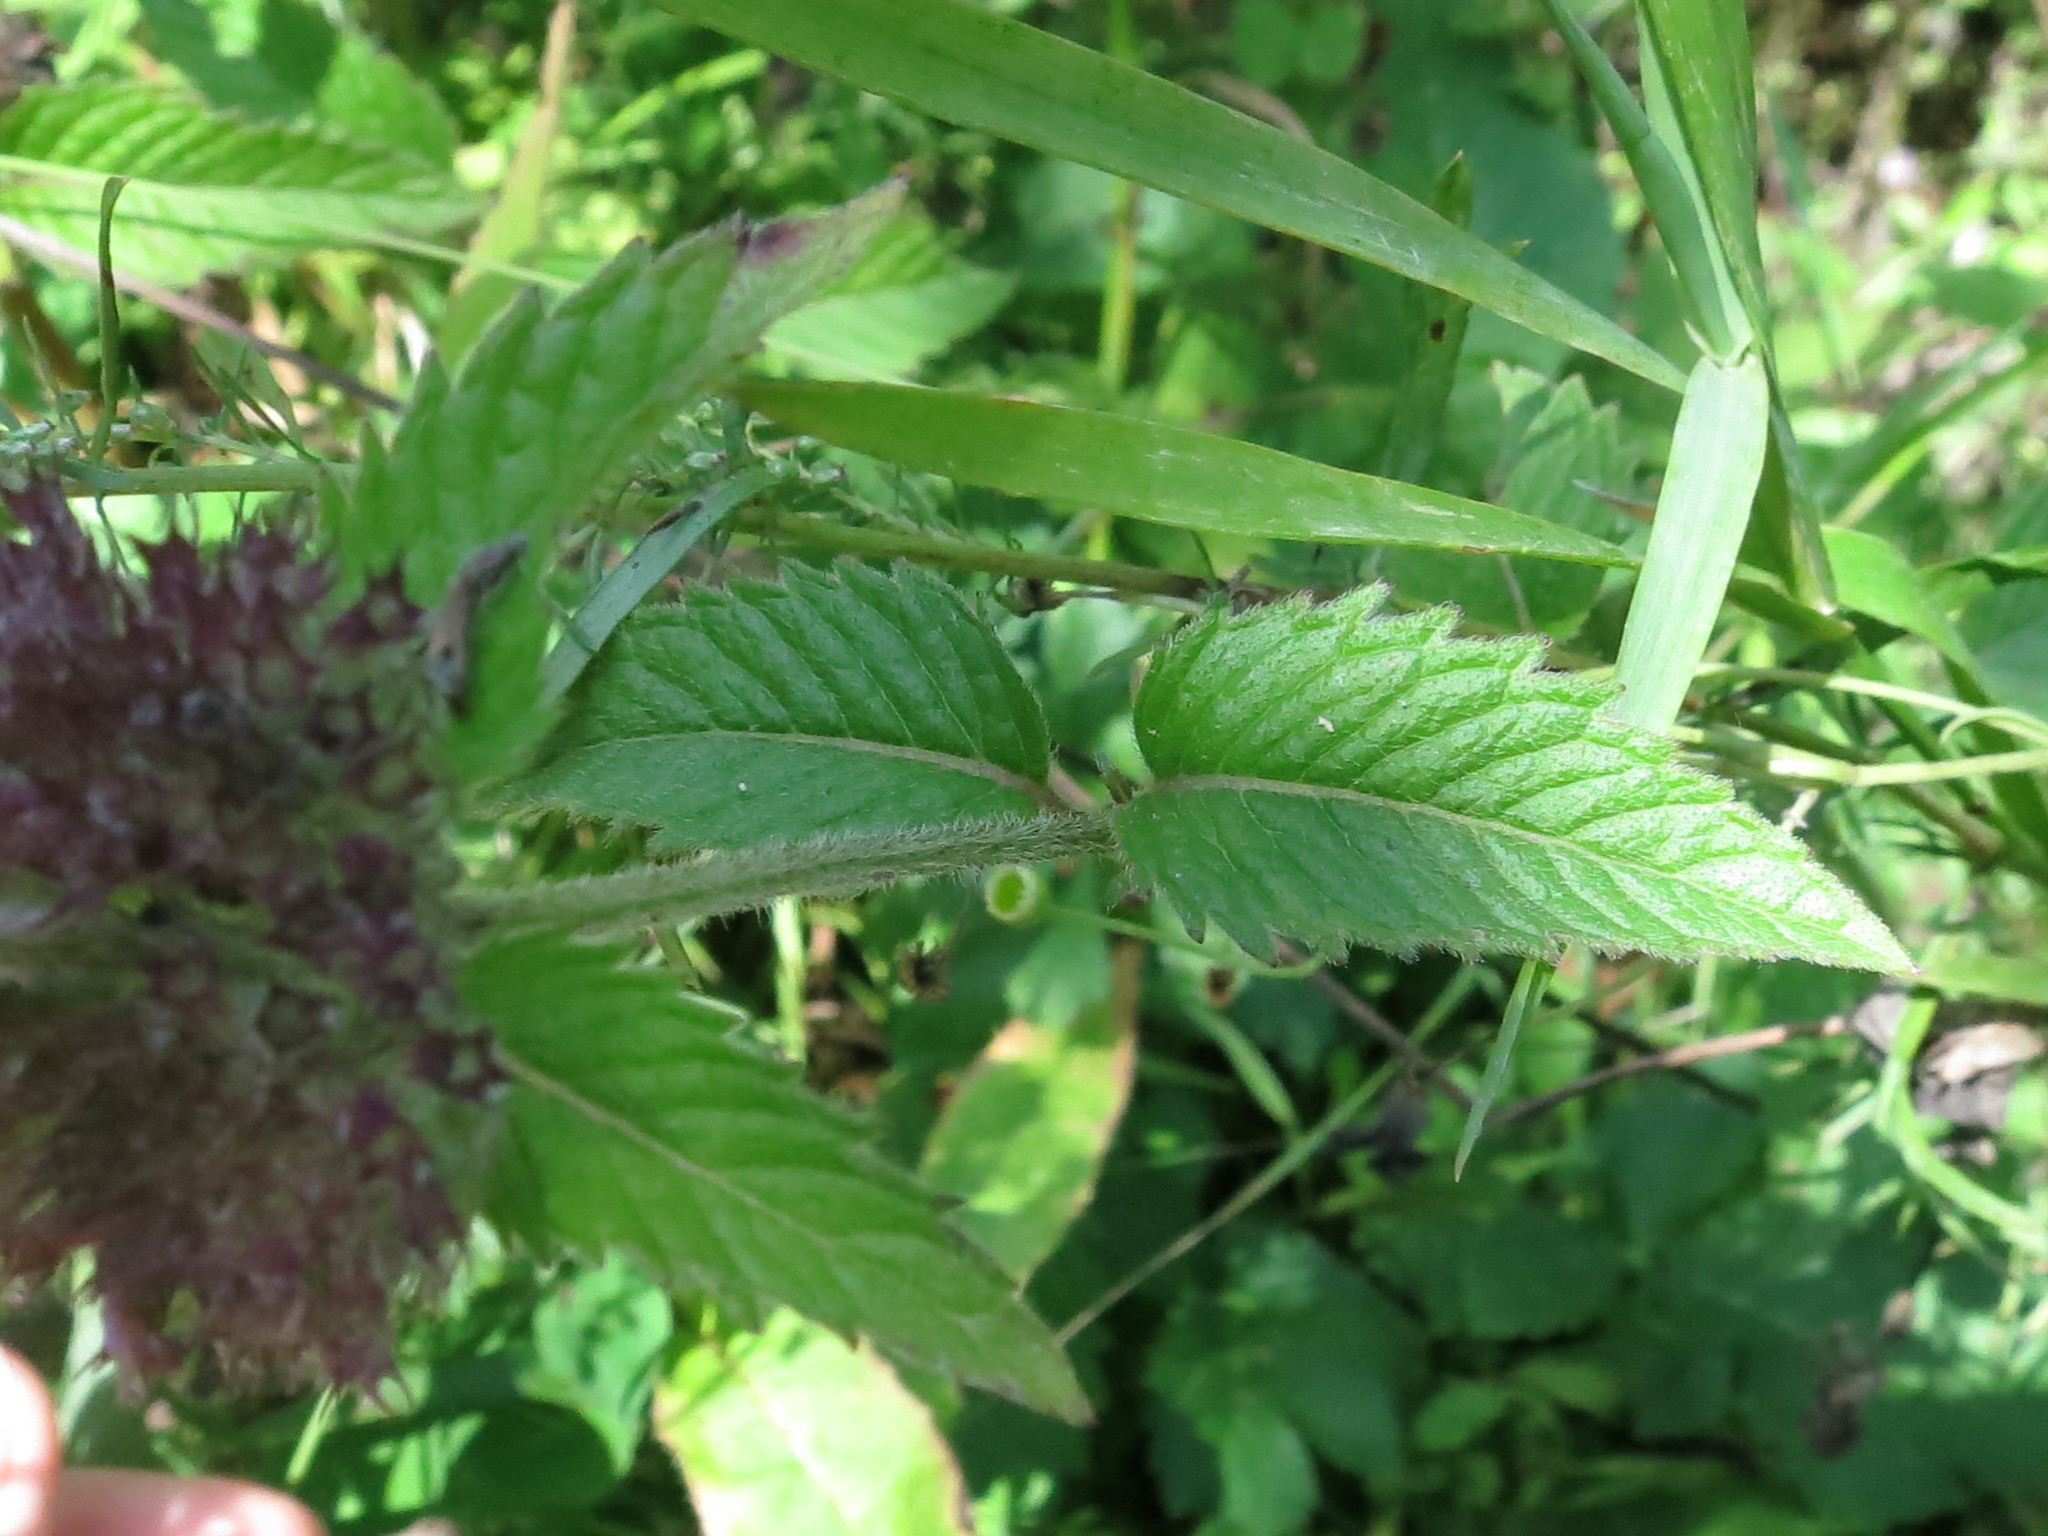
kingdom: Plantae
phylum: Tracheophyta
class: Magnoliopsida
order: Lamiales
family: Lamiaceae
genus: Clinopodium
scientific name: Clinopodium chinense
